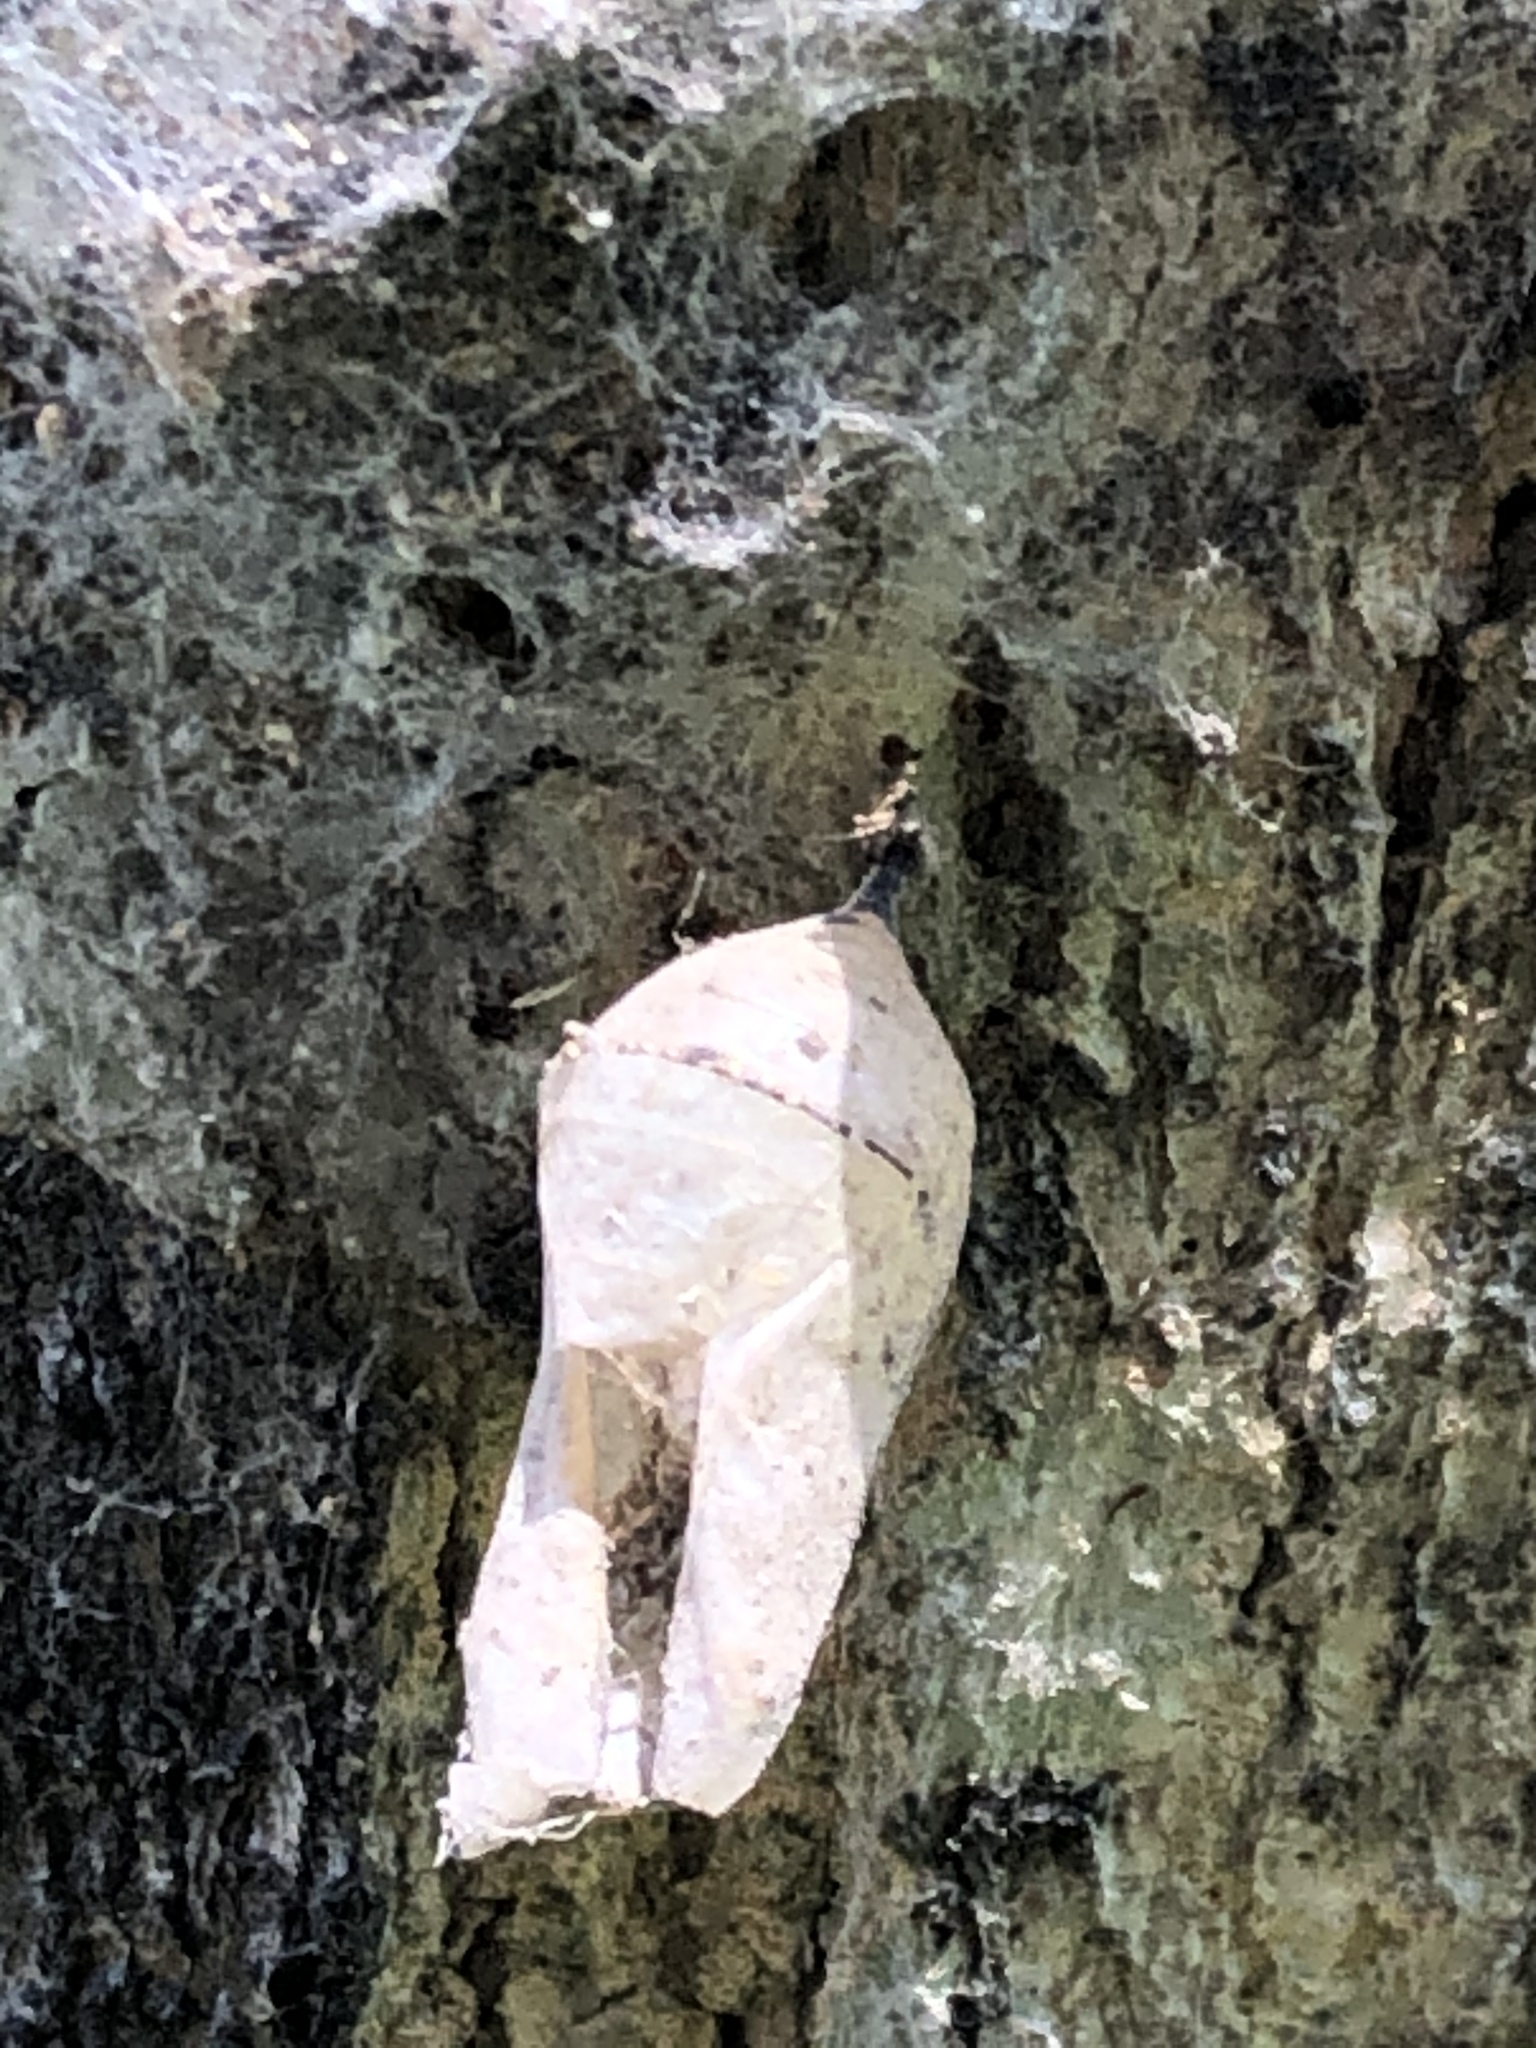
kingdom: Animalia
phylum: Arthropoda
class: Insecta
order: Lepidoptera
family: Nymphalidae
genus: Danaus
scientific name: Danaus plexippus
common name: Monarch
